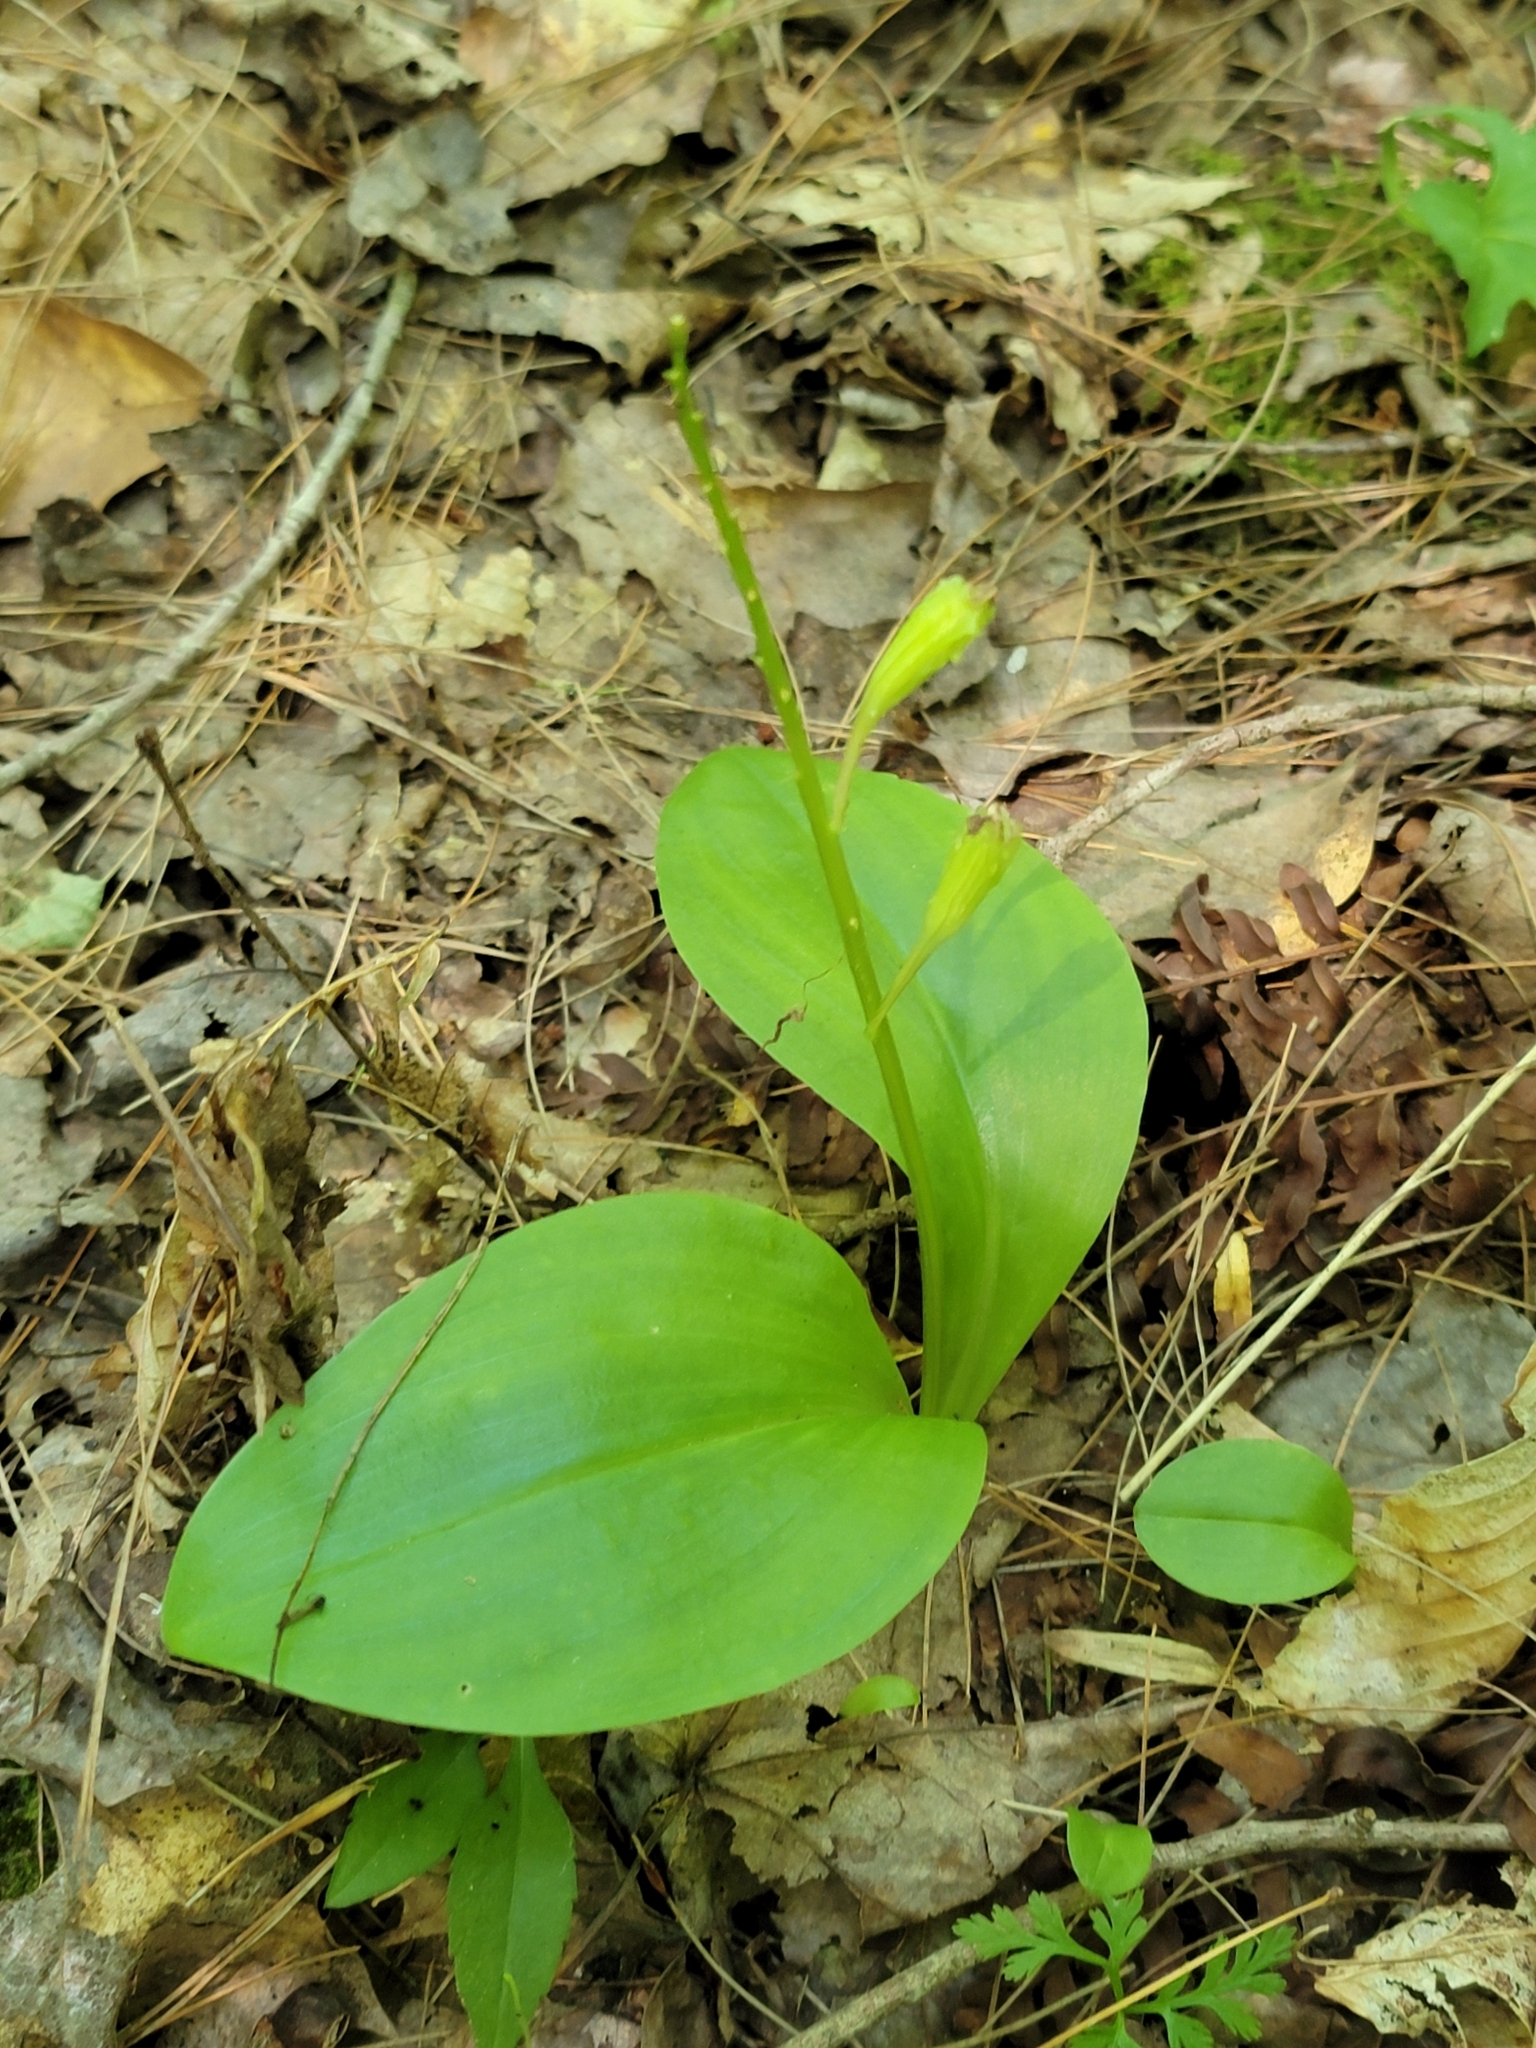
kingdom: Plantae
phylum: Tracheophyta
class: Liliopsida
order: Asparagales
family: Orchidaceae
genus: Liparis
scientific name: Liparis liliifolia
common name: Brown wide-lip orchid
